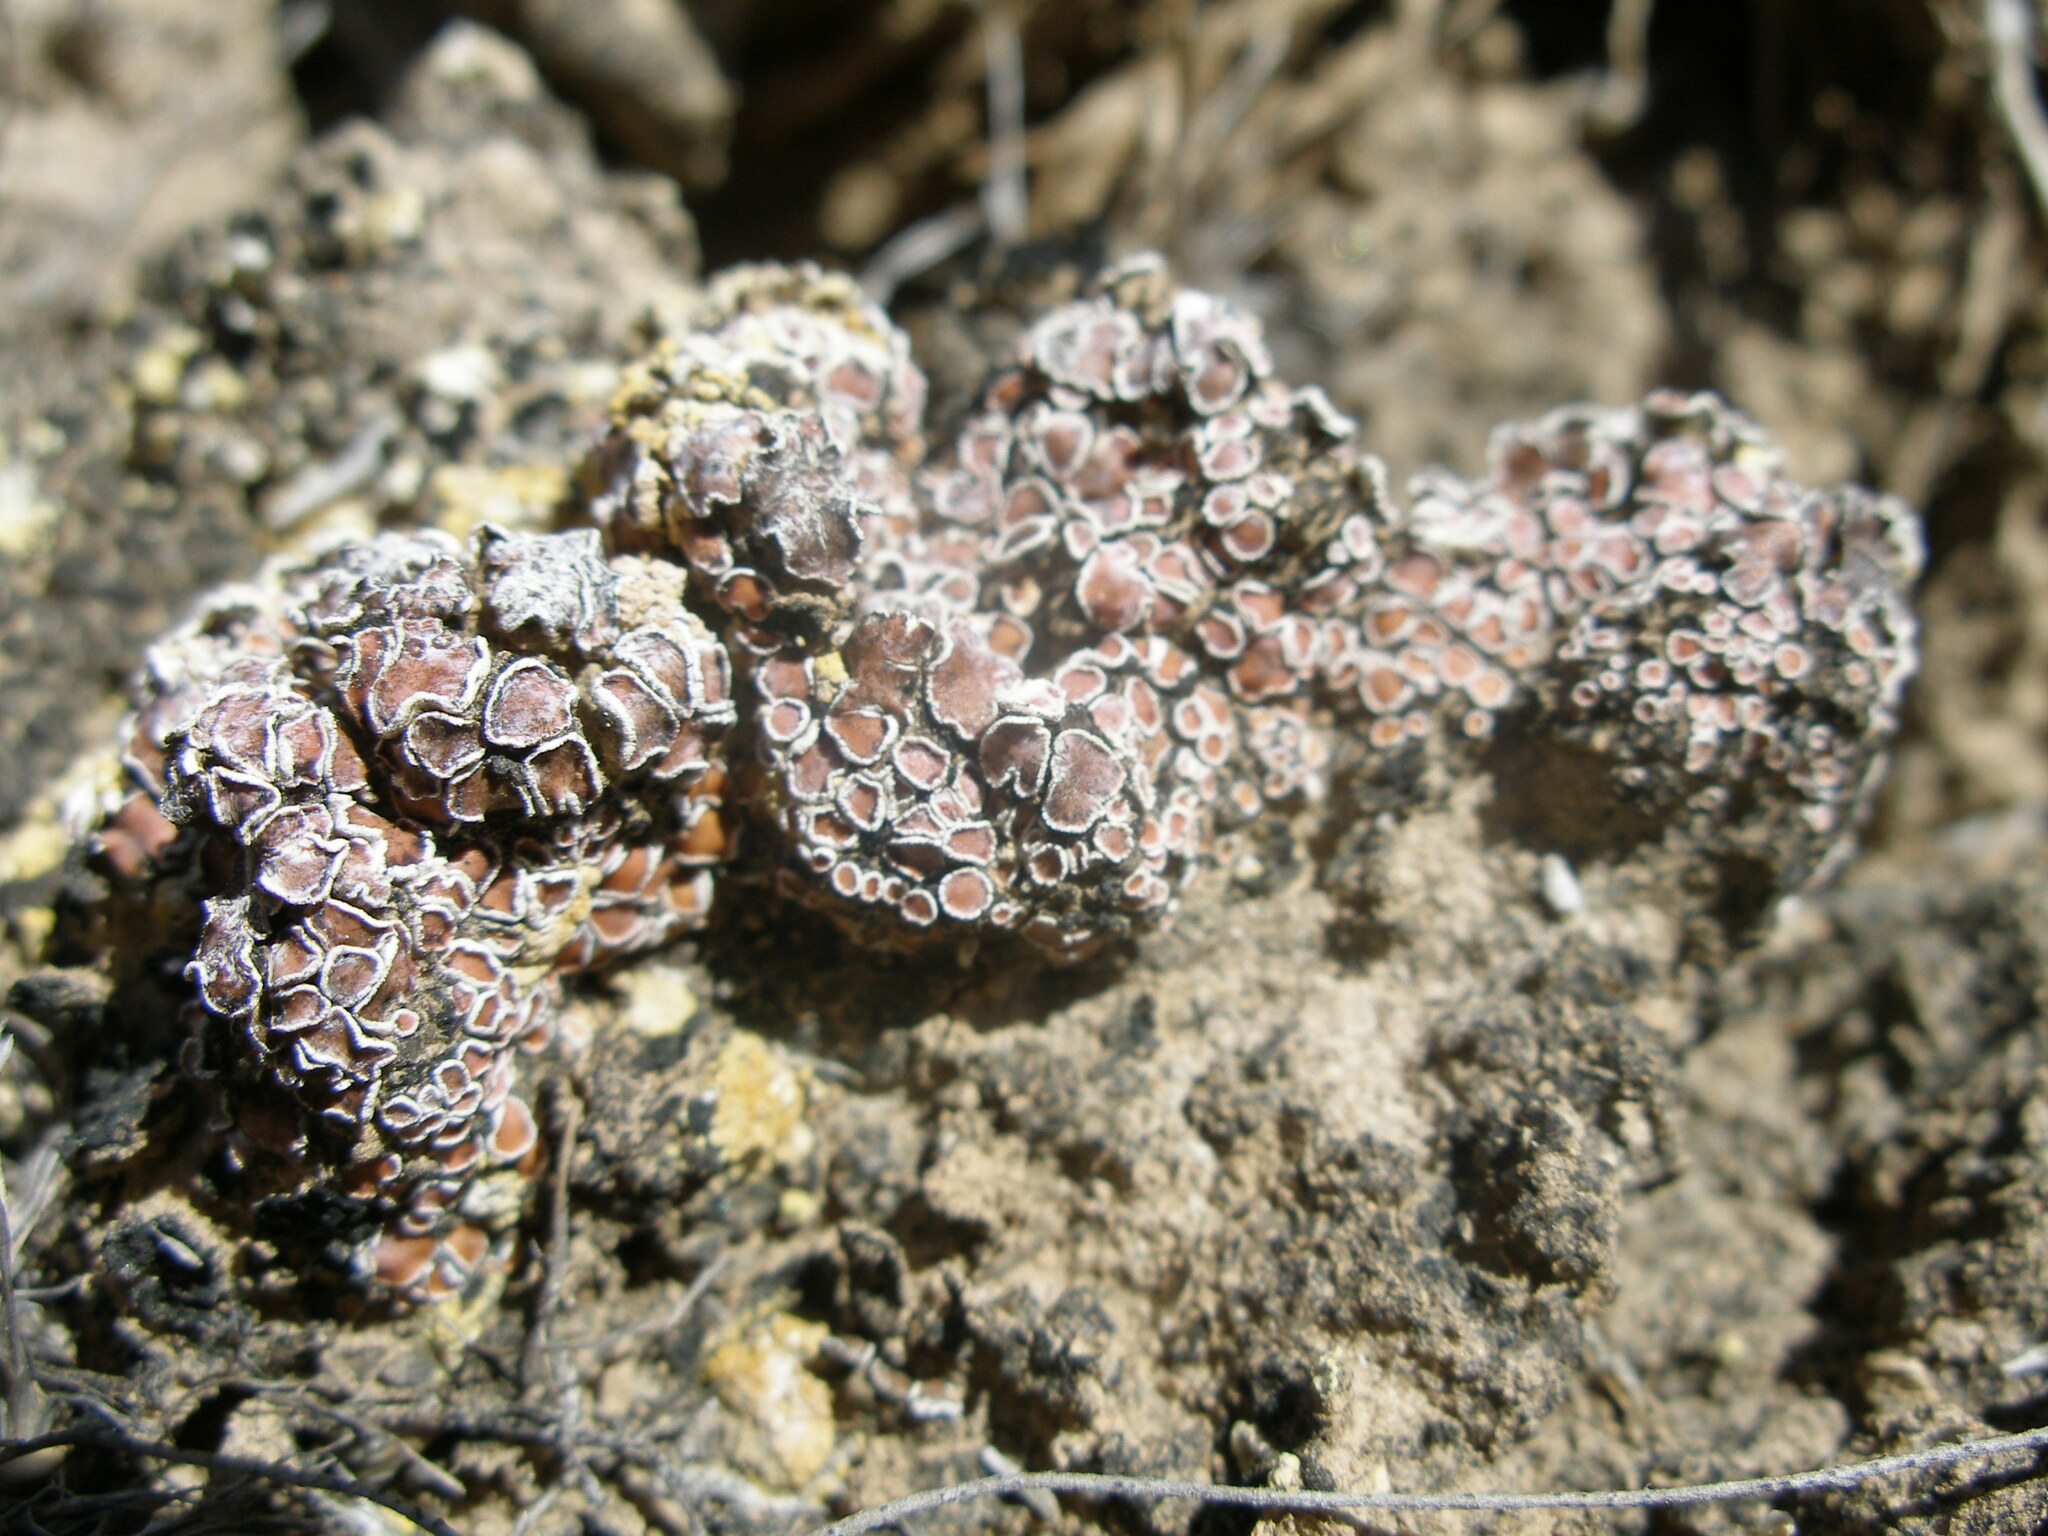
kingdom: Fungi
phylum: Ascomycota
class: Lecanoromycetes
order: Lecanorales
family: Psoraceae
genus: Psora
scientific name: Psora decipiens
